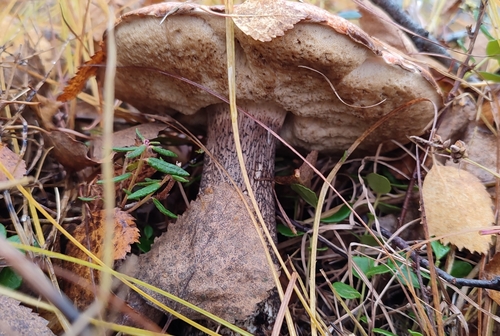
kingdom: Fungi
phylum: Basidiomycota
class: Agaricomycetes
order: Boletales
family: Boletaceae
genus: Leccinum
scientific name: Leccinum
